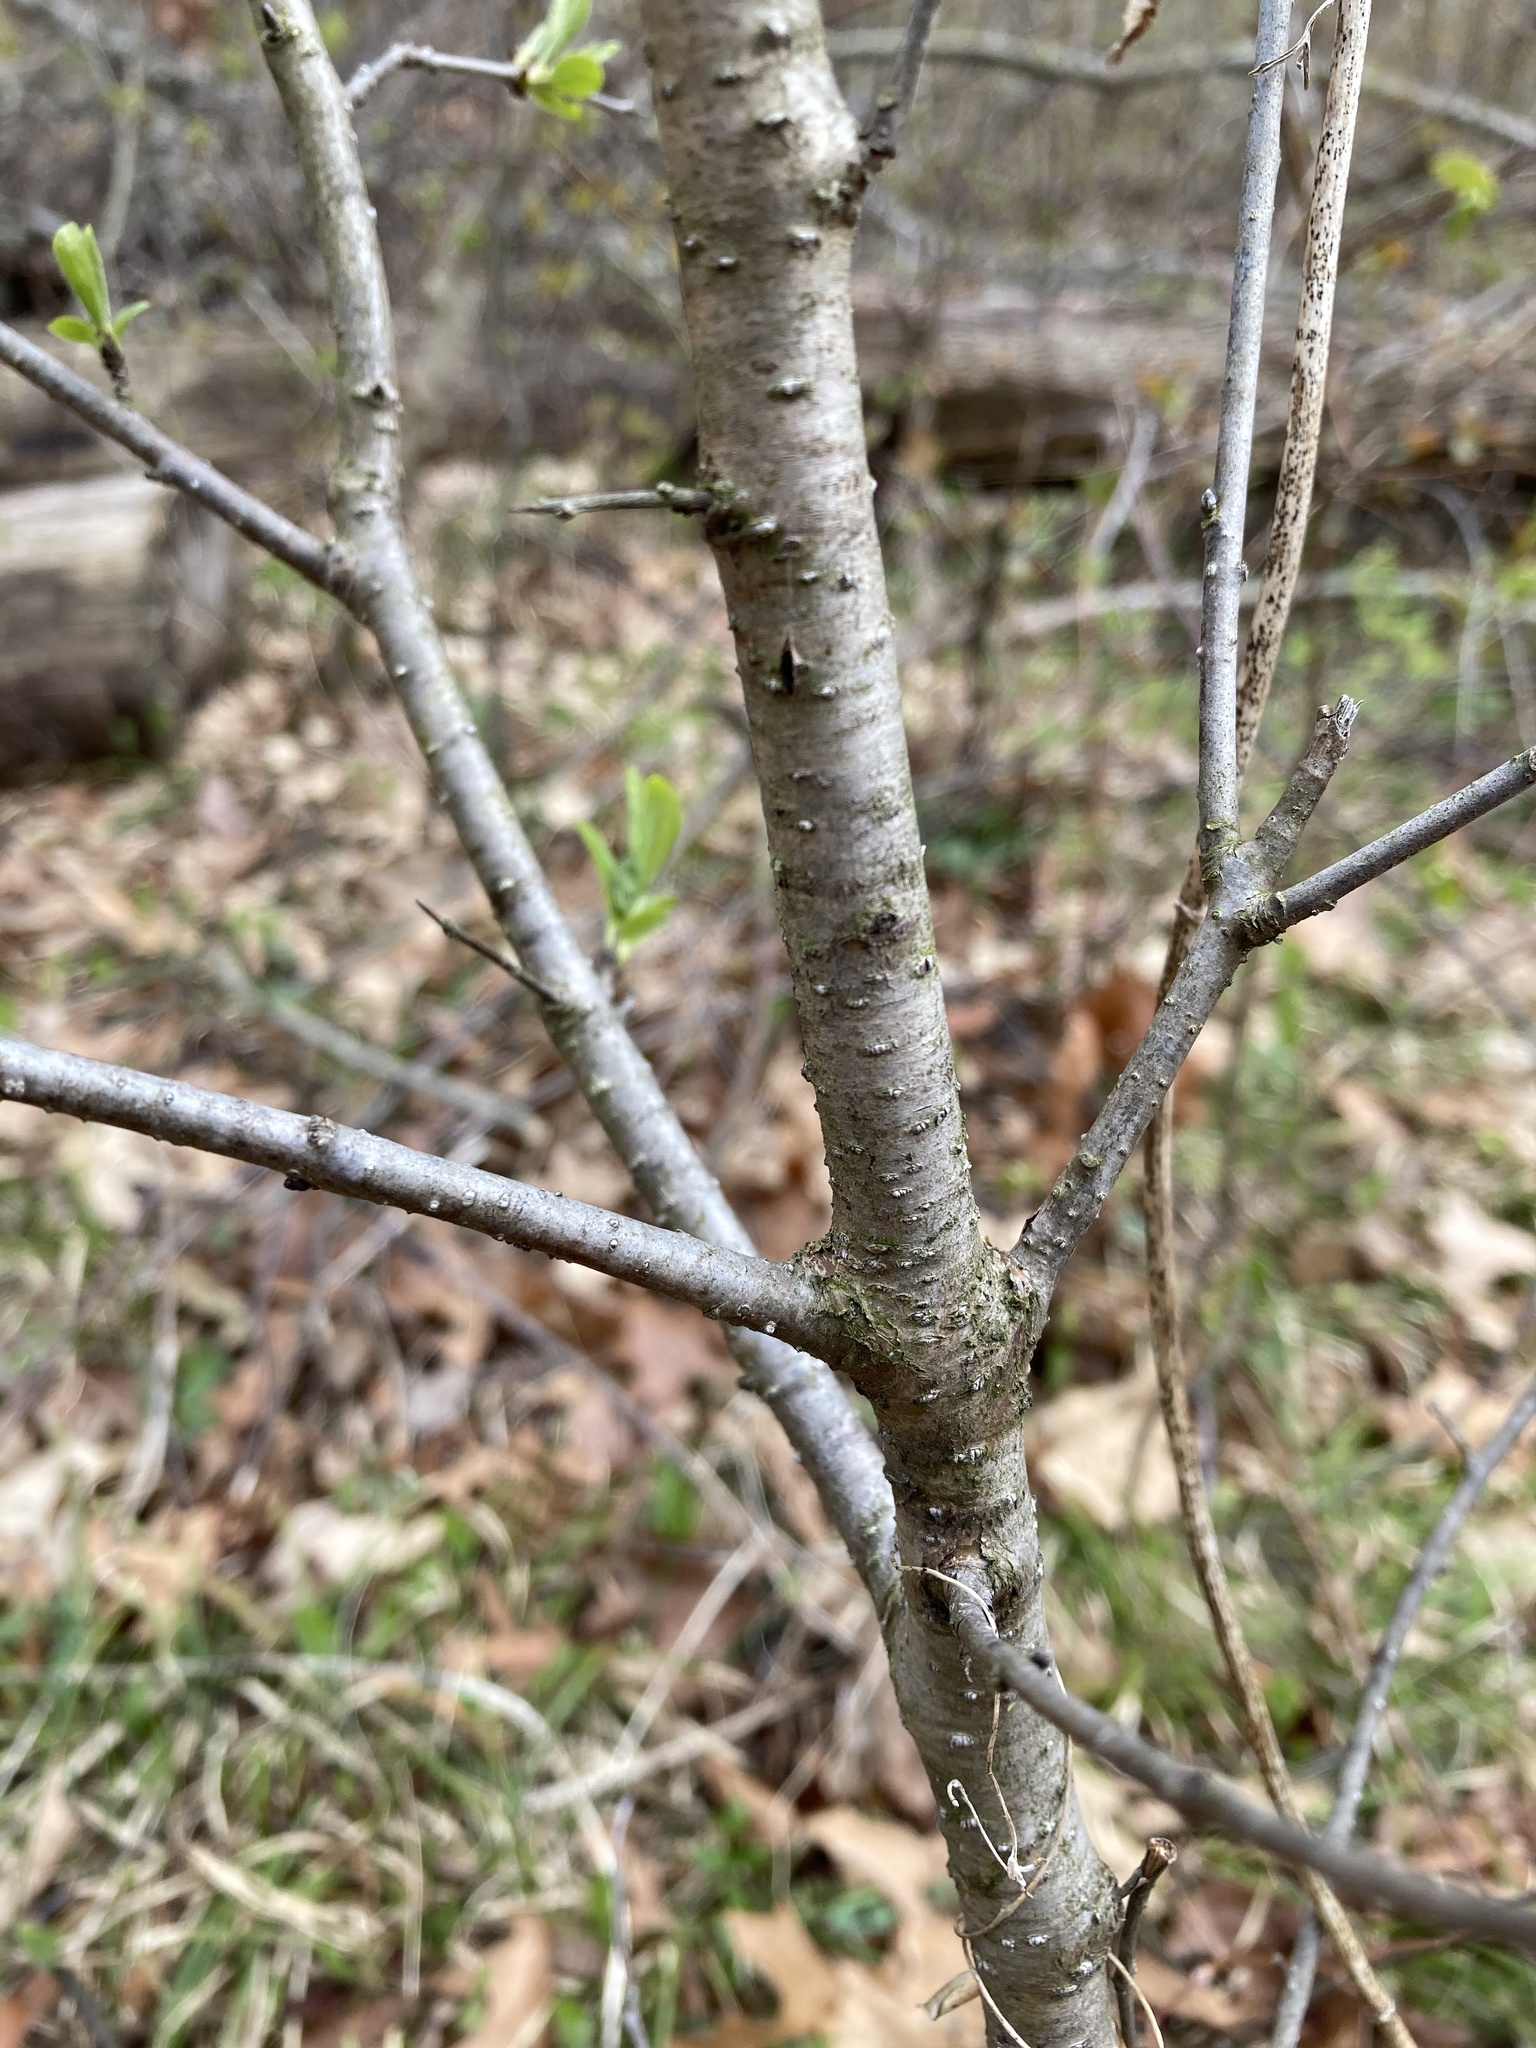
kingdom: Plantae
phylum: Tracheophyta
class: Magnoliopsida
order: Rosales
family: Rhamnaceae
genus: Rhamnus
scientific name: Rhamnus cathartica
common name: Common buckthorn
